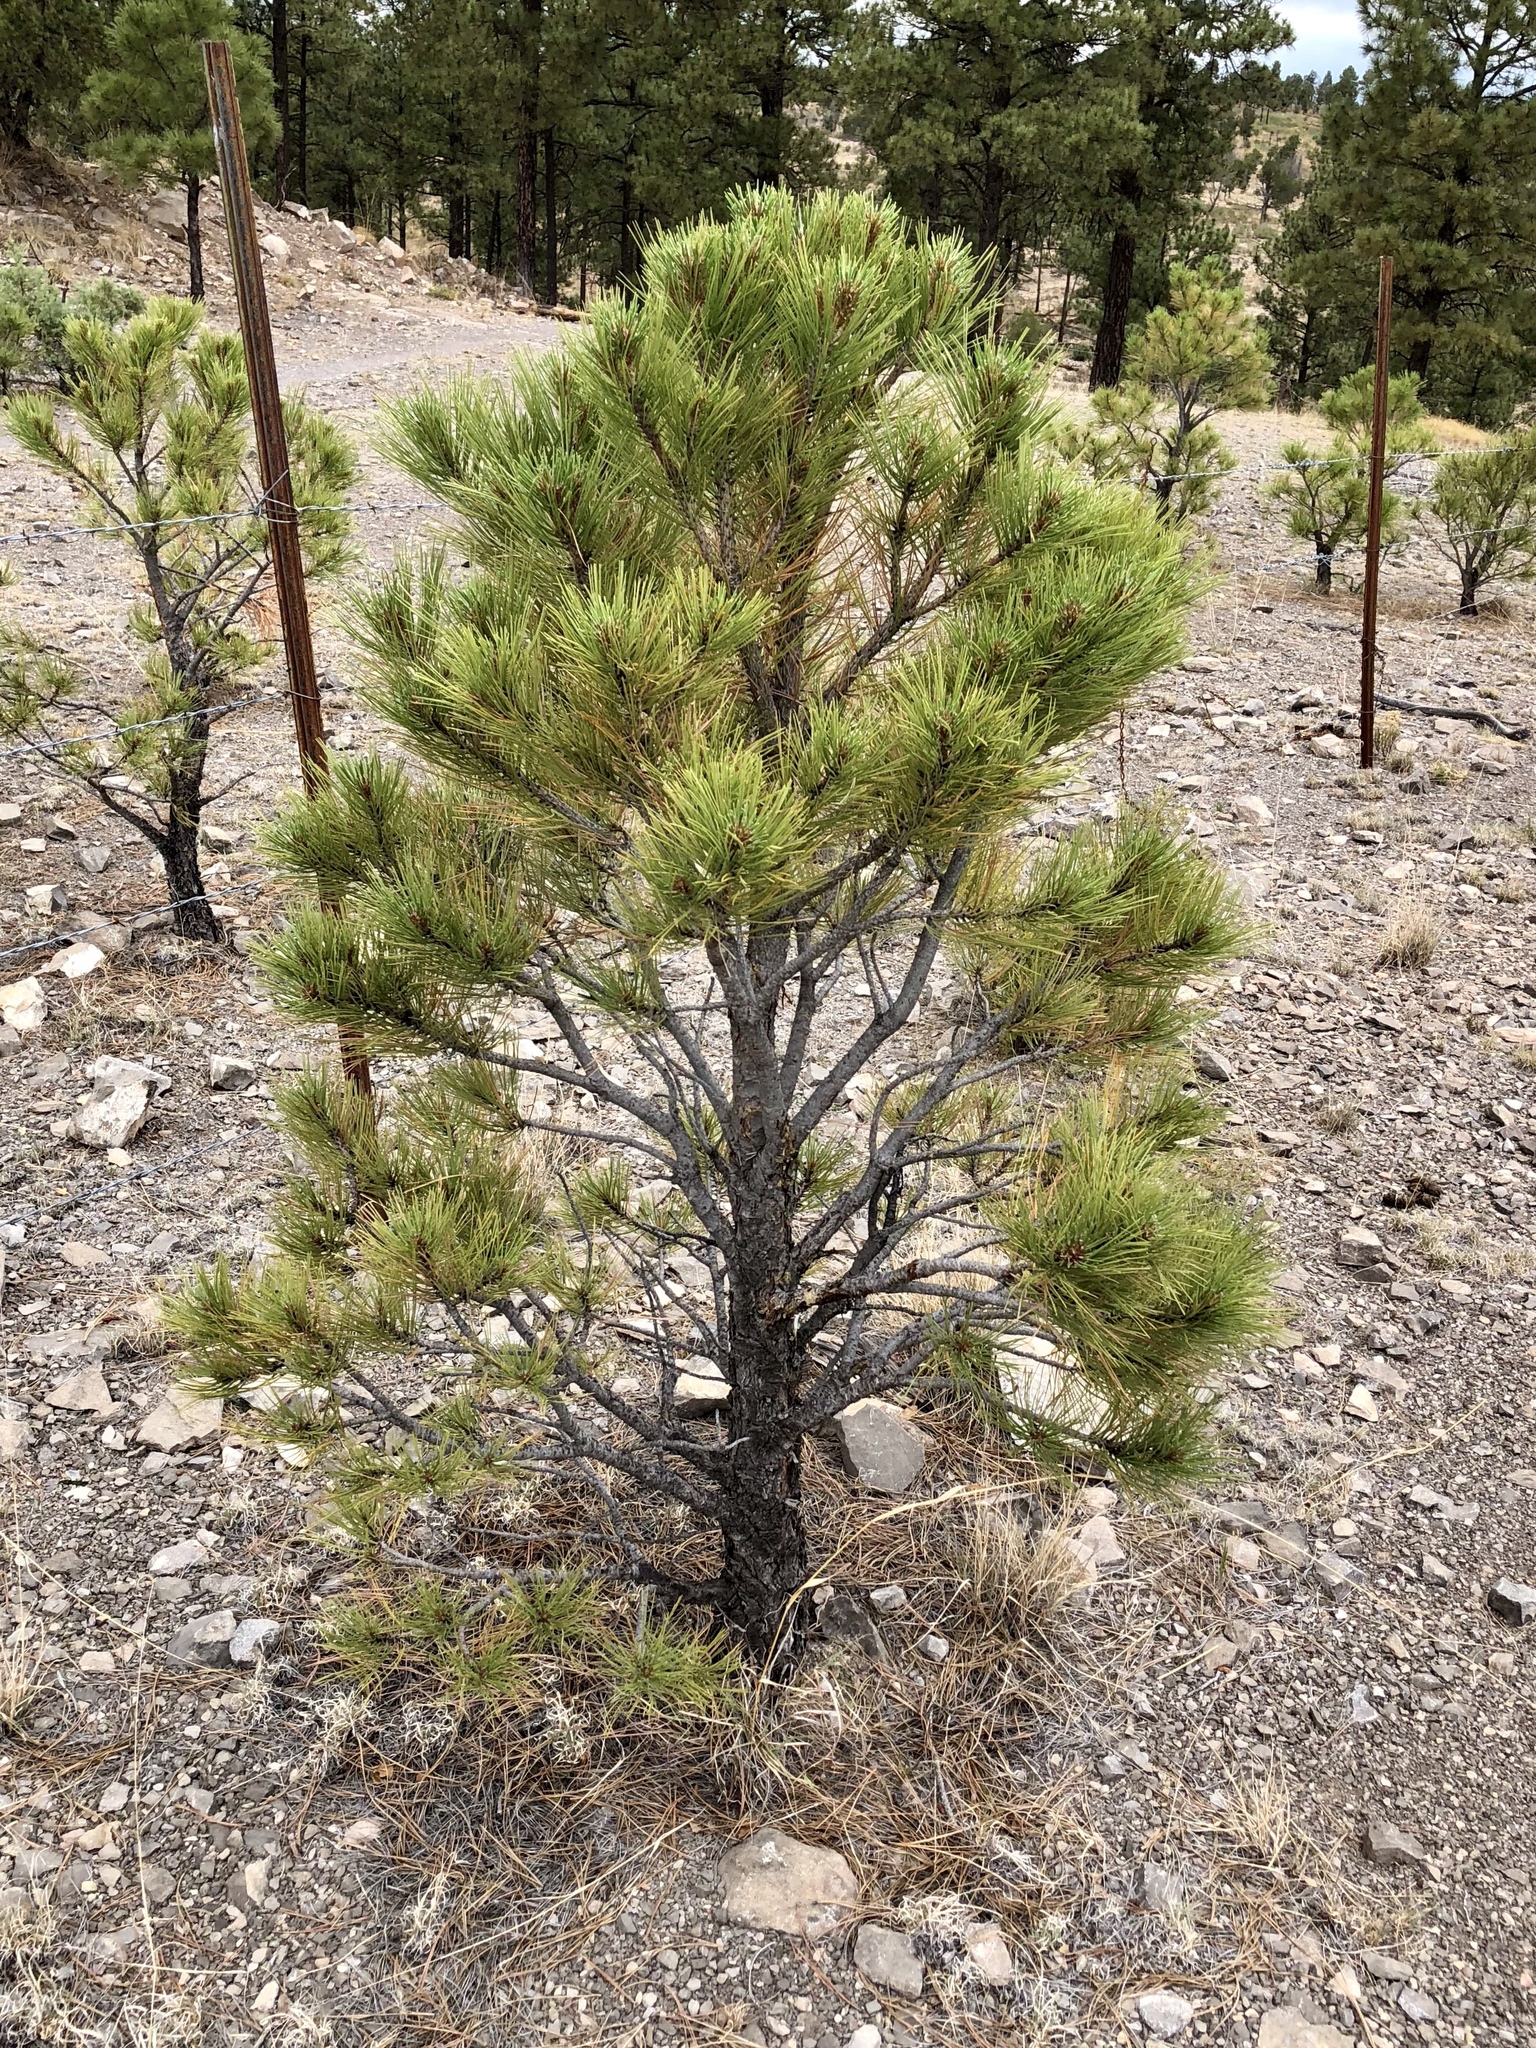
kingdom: Plantae
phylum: Tracheophyta
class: Pinopsida
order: Pinales
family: Pinaceae
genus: Pinus
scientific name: Pinus ponderosa
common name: Western yellow-pine
